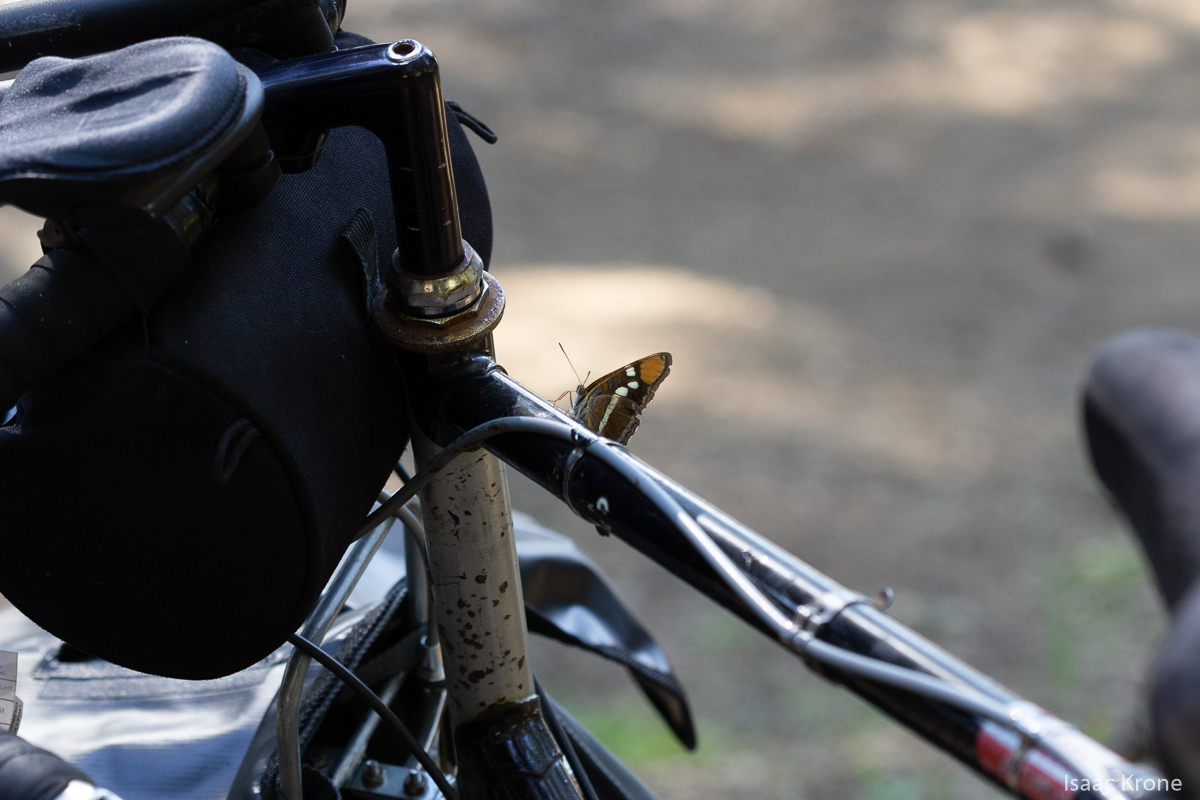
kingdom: Animalia
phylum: Arthropoda
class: Insecta
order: Lepidoptera
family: Nymphalidae
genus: Limenitis
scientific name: Limenitis bredowii
